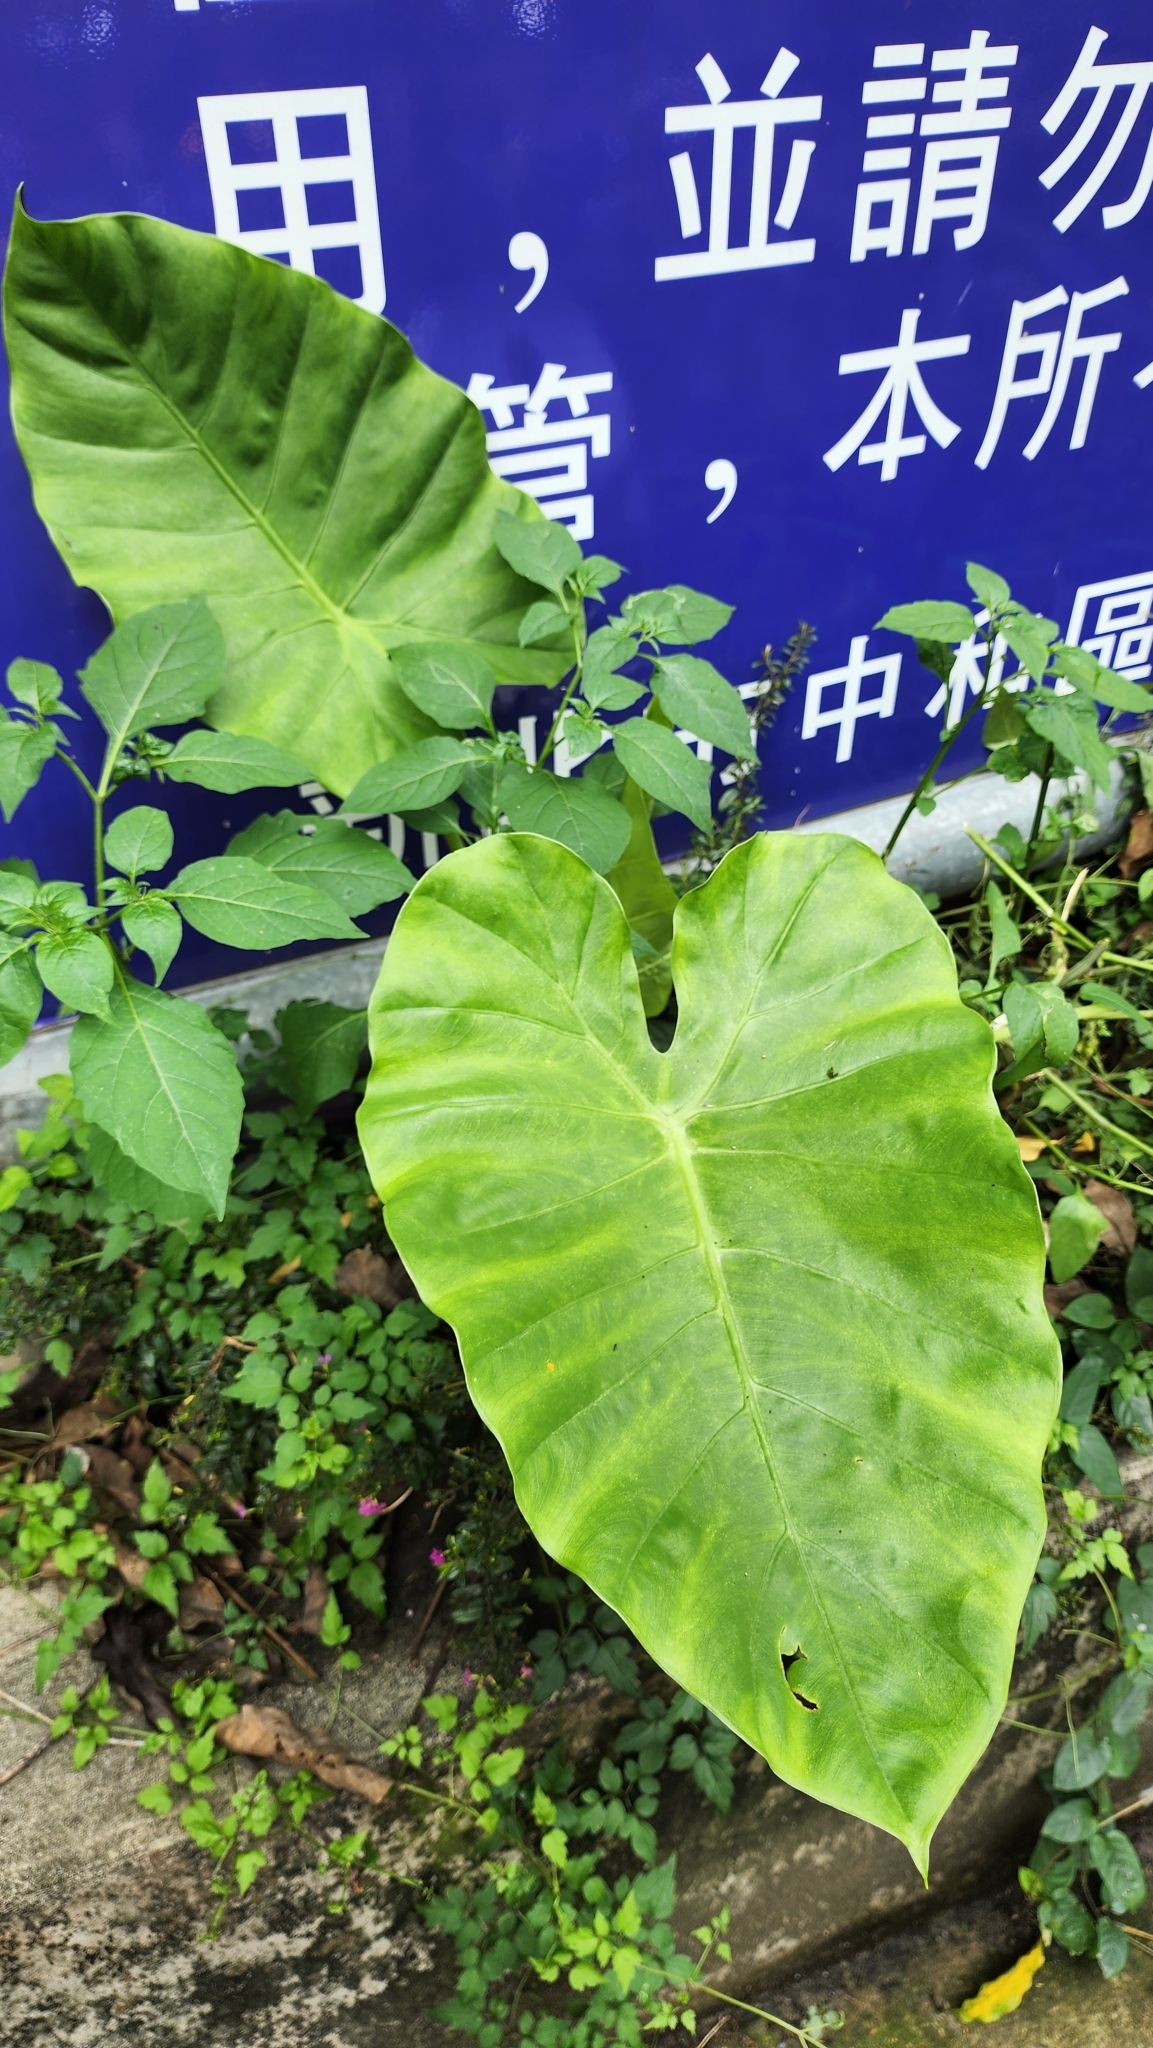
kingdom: Plantae
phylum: Tracheophyta
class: Liliopsida
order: Alismatales
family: Araceae
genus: Alocasia
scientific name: Alocasia odora
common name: Asian taro
